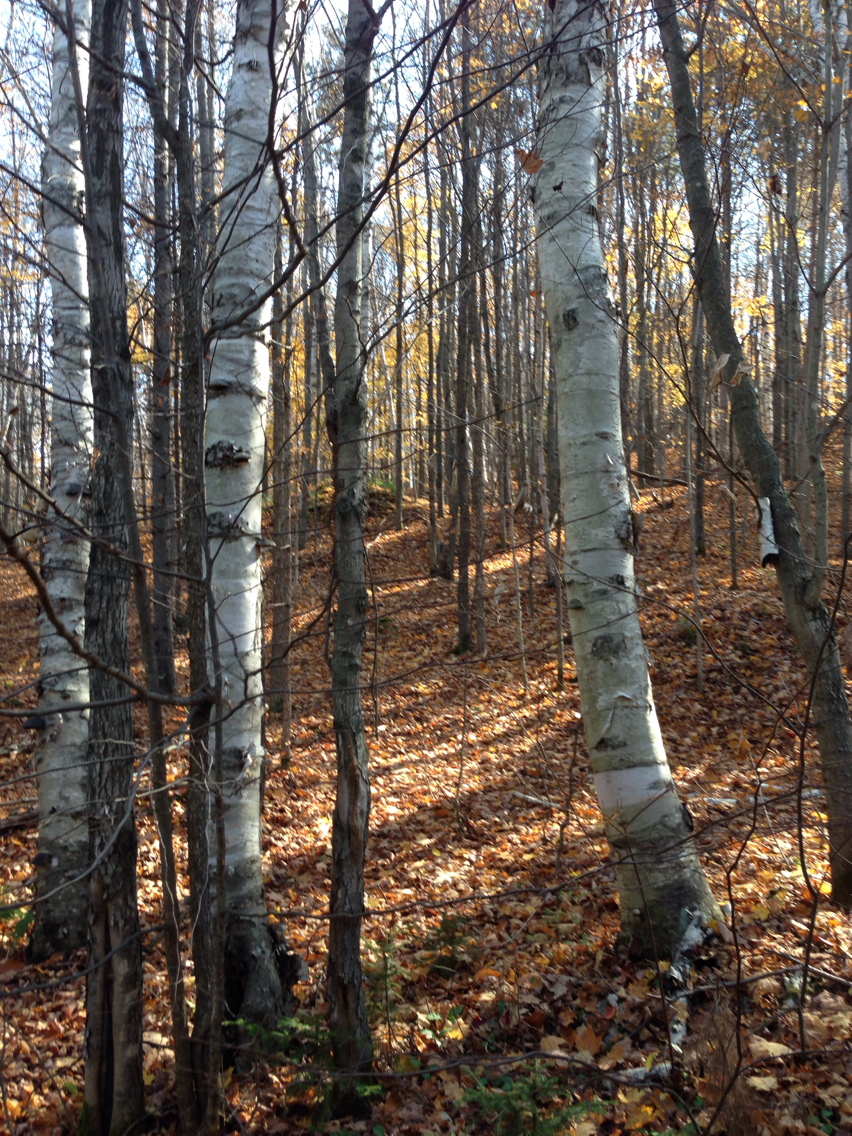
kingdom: Plantae
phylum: Tracheophyta
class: Magnoliopsida
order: Fagales
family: Betulaceae
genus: Betula
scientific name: Betula papyrifera
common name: Paper birch
